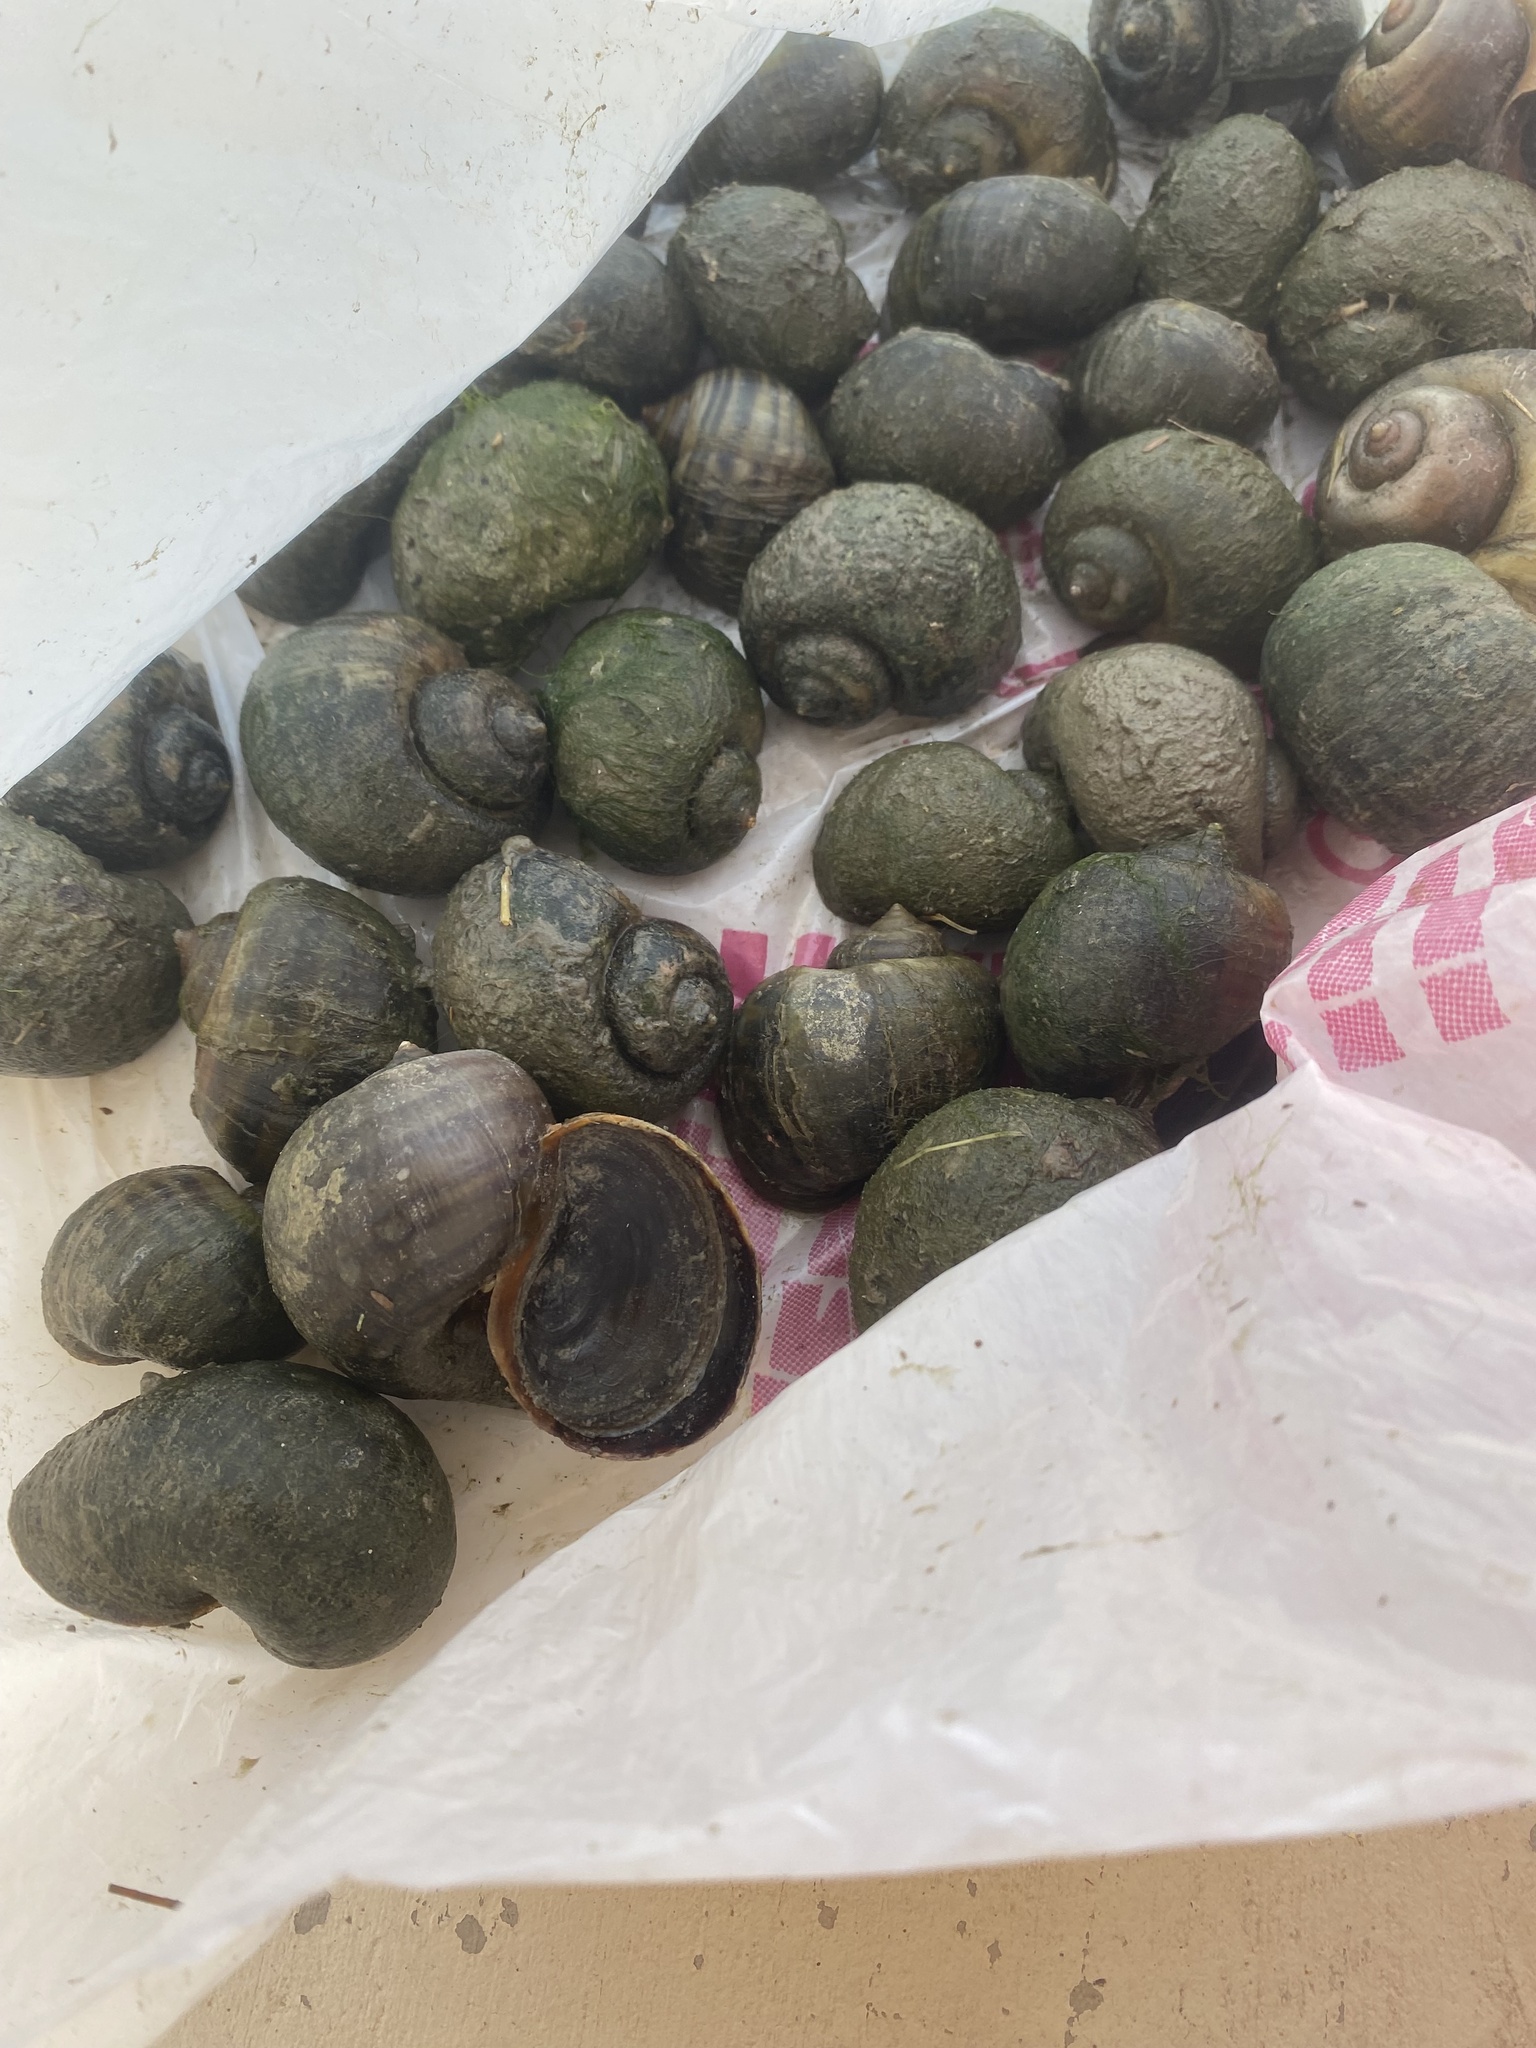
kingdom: Animalia
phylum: Mollusca
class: Gastropoda
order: Architaenioglossa
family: Ampullariidae
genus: Pomacea
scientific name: Pomacea canaliculata
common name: Channeled applesnail
